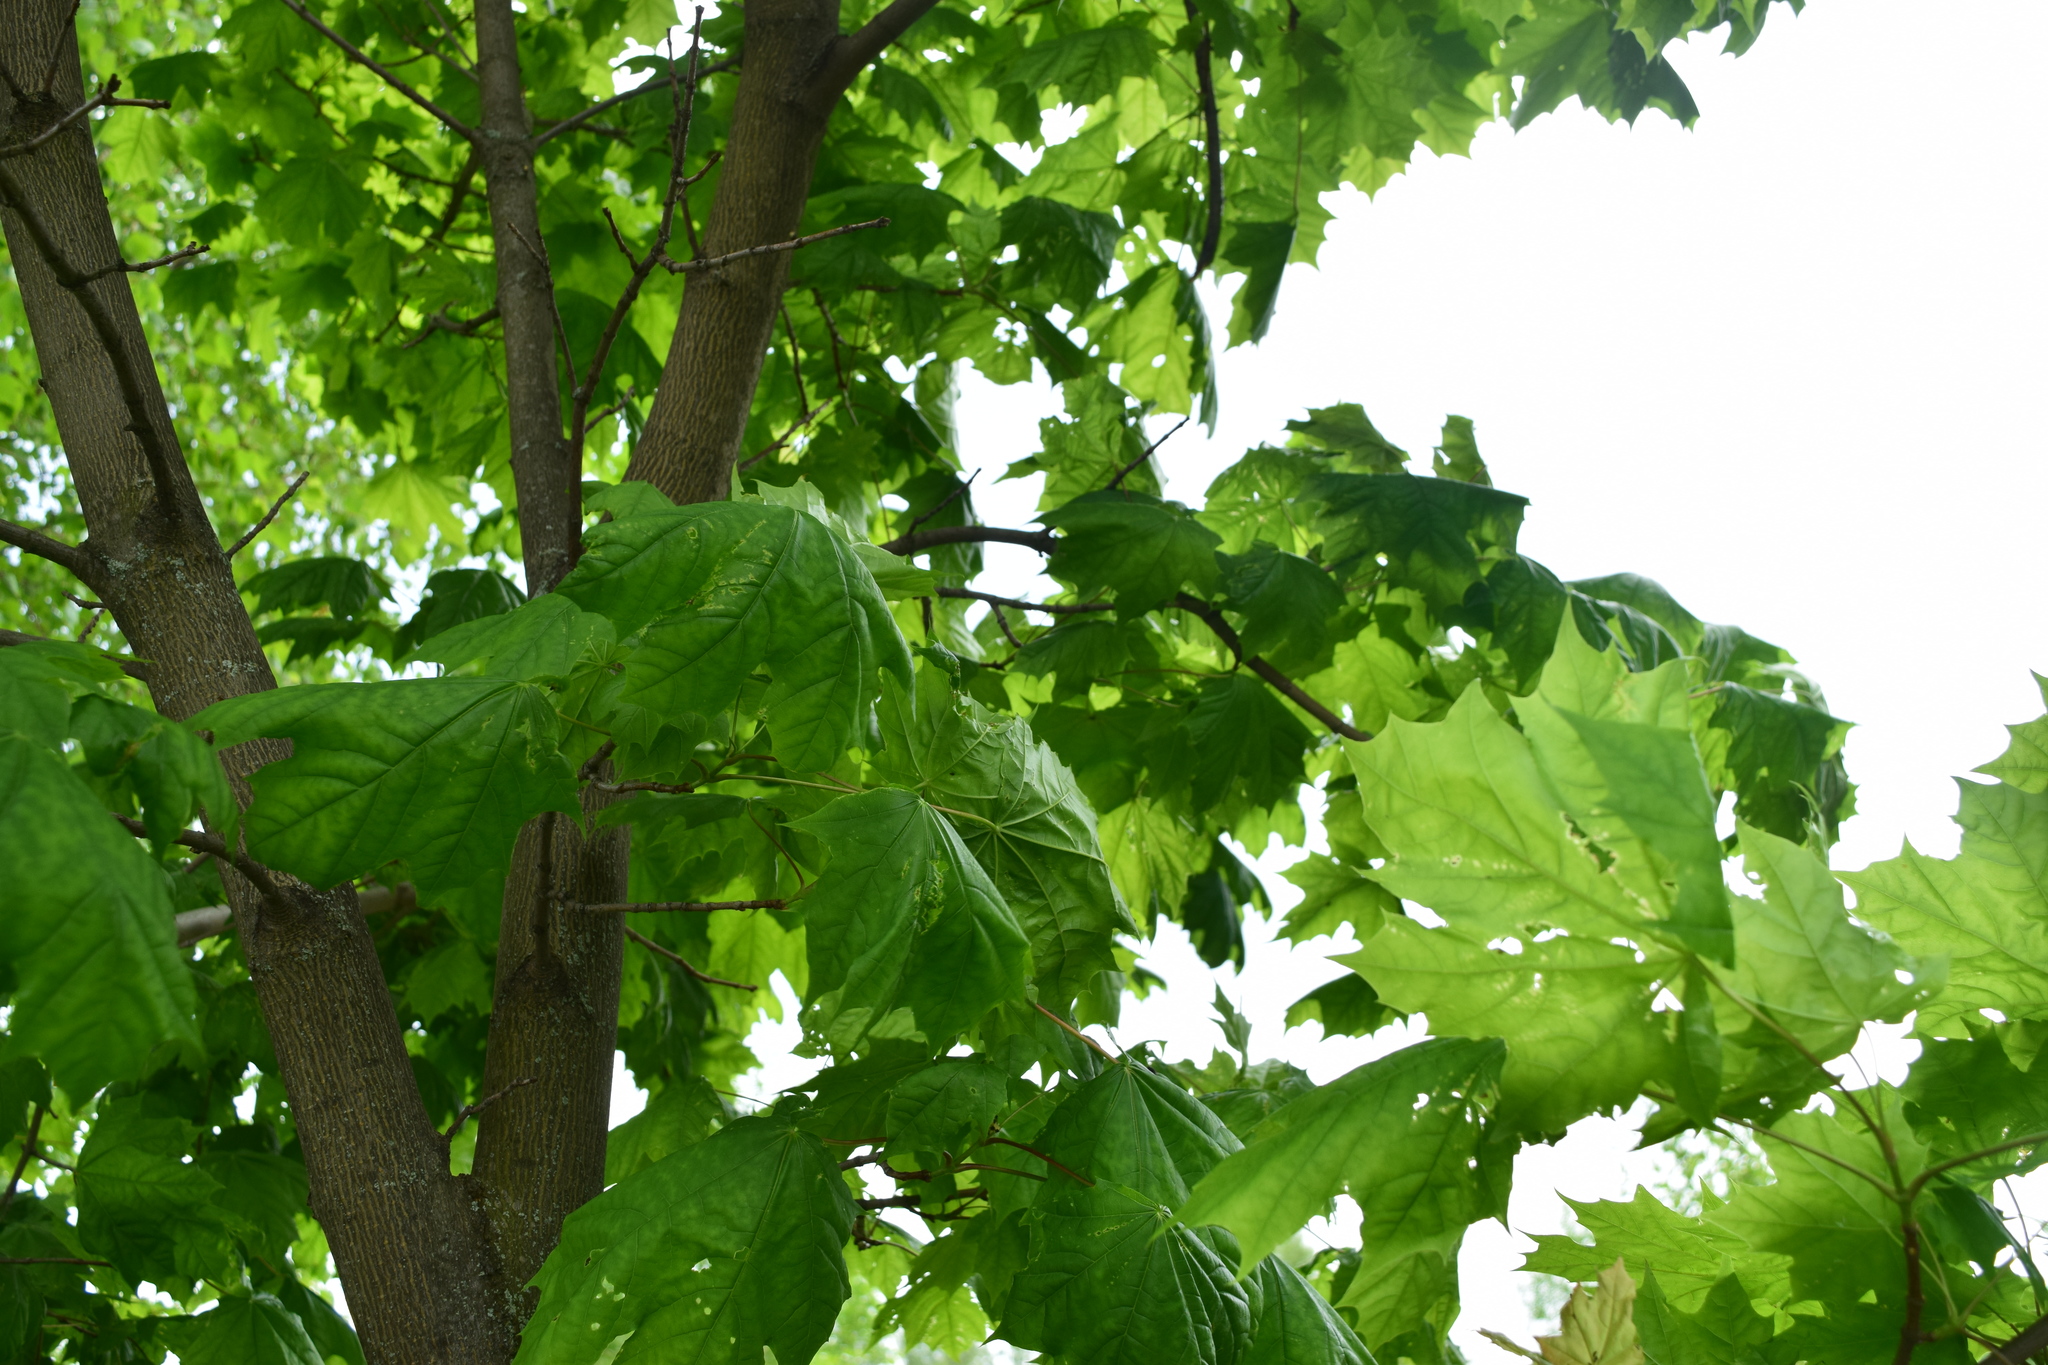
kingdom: Plantae
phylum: Tracheophyta
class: Magnoliopsida
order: Sapindales
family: Sapindaceae
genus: Acer
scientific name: Acer platanoides
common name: Norway maple
